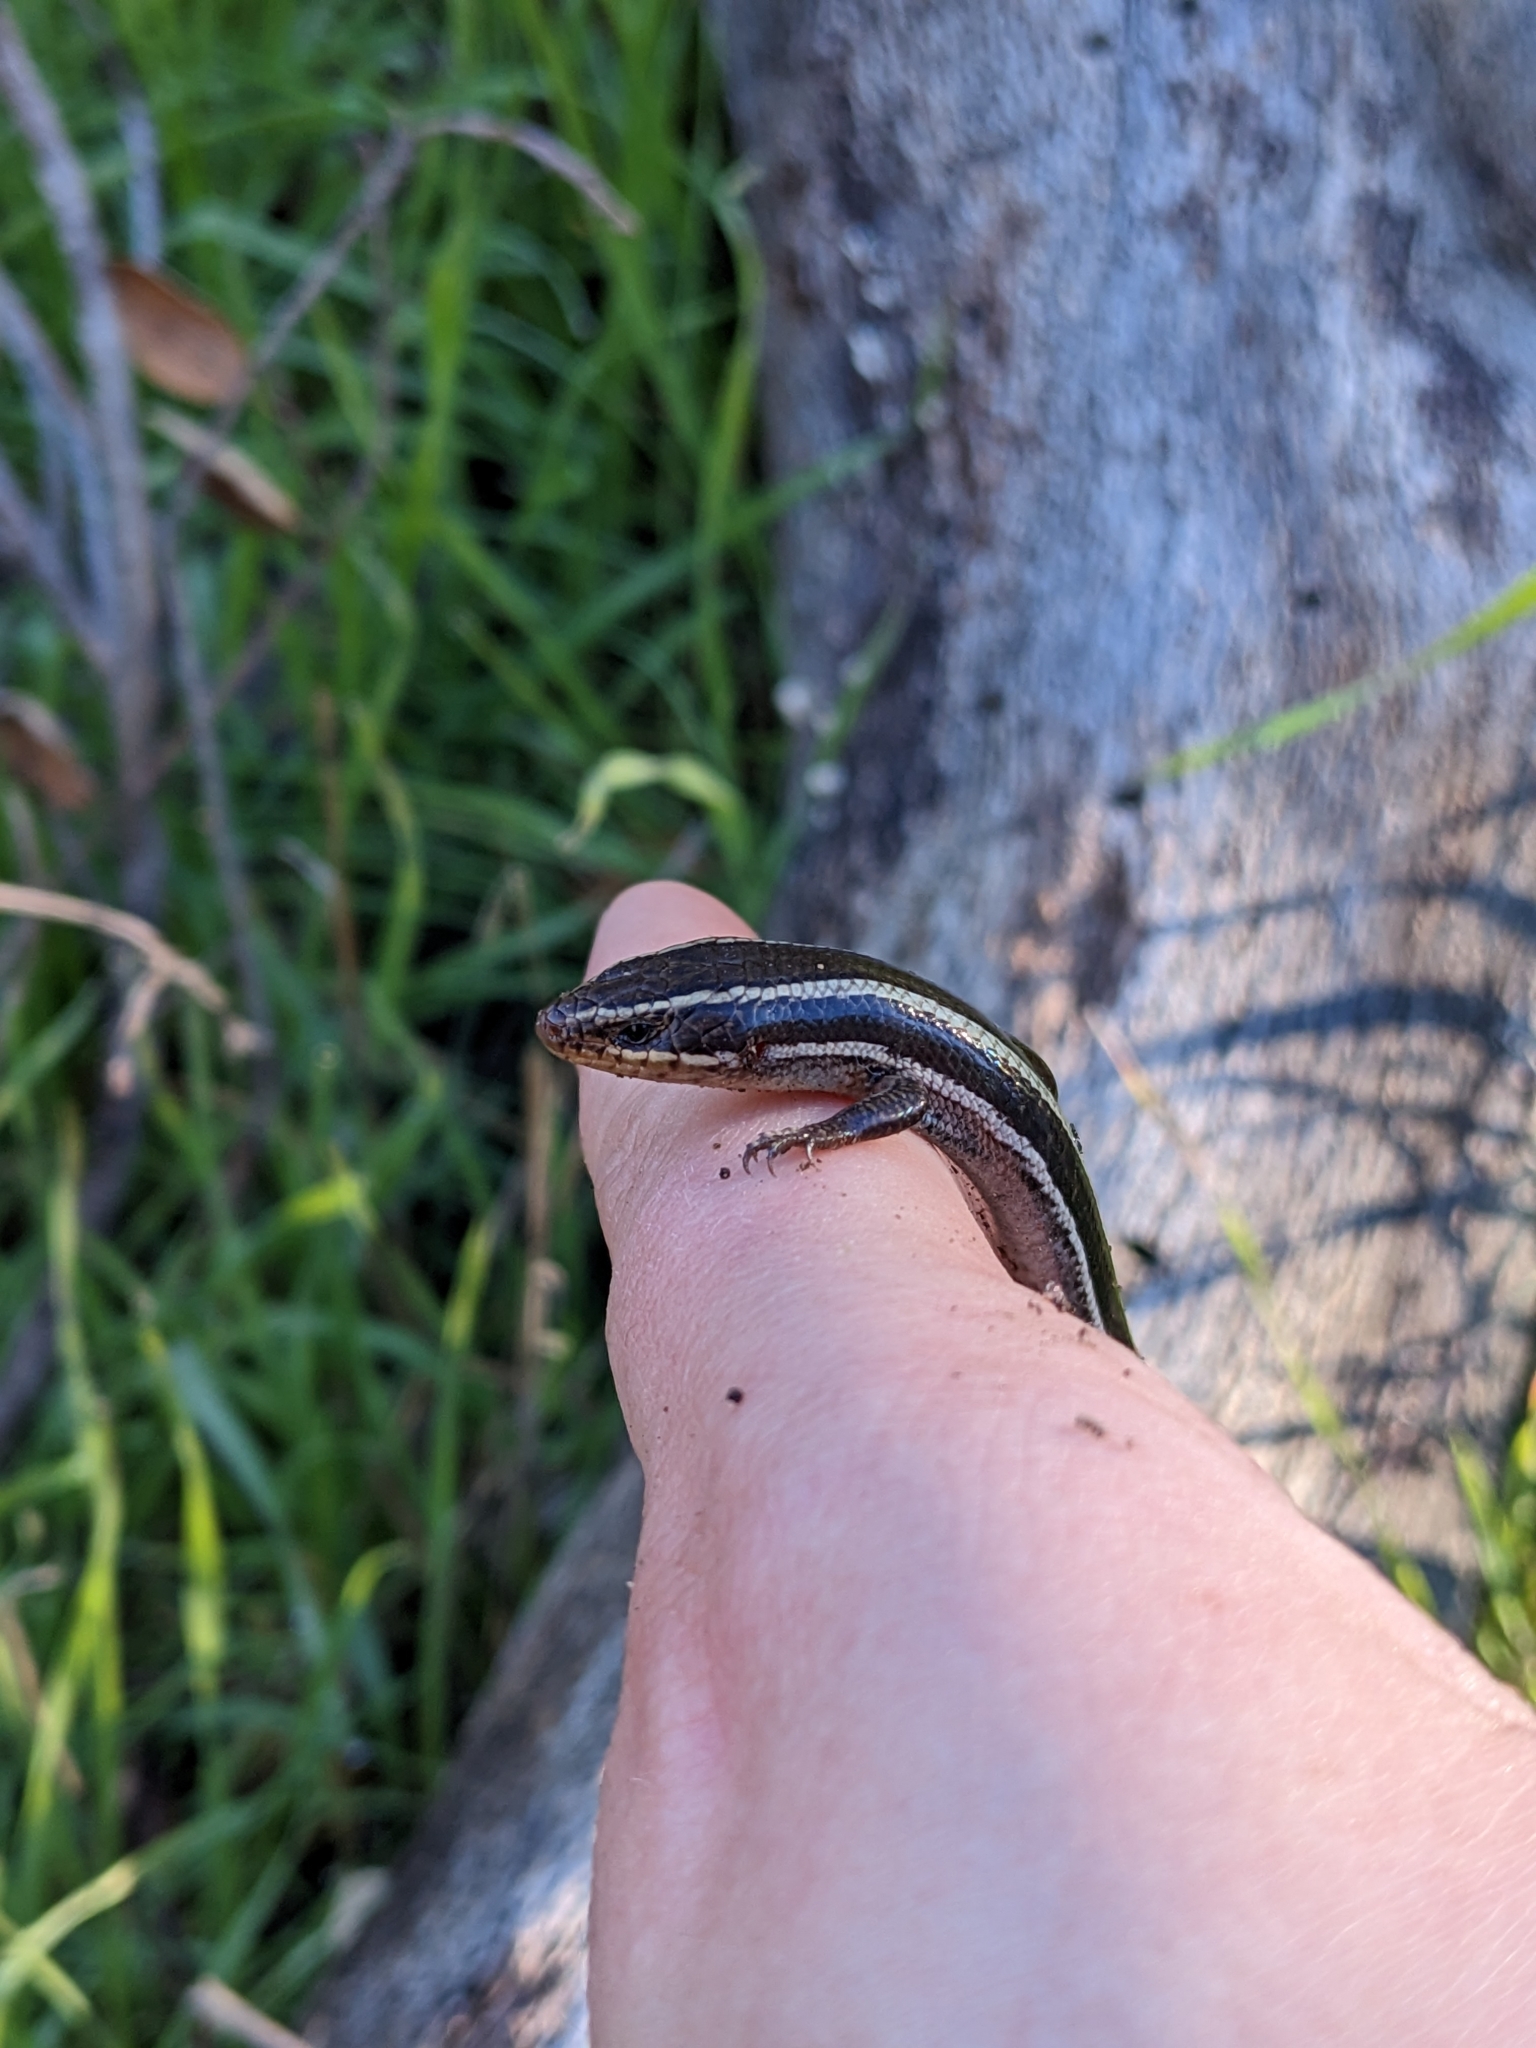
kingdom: Animalia
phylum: Chordata
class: Squamata
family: Scincidae
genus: Plestiodon
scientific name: Plestiodon skiltonianus
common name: Coronado island skink [interparietalis]
